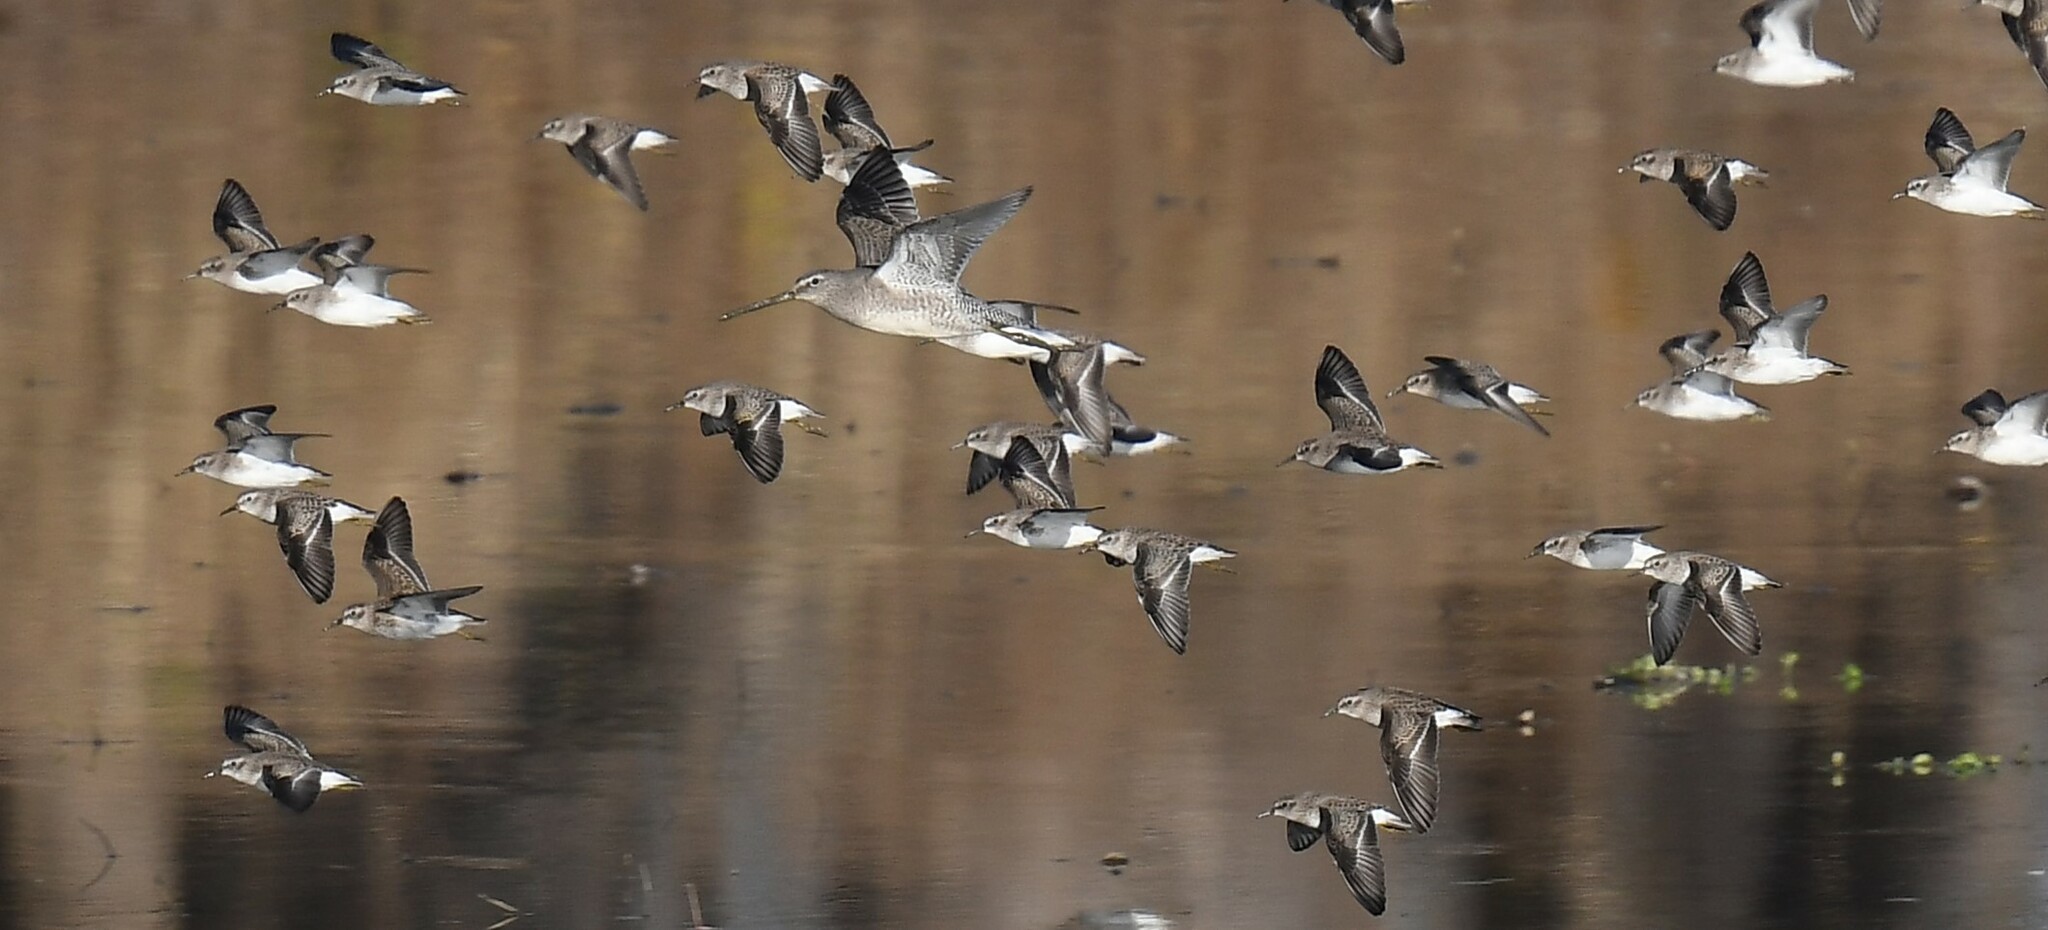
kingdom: Animalia
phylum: Chordata
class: Aves
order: Charadriiformes
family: Scolopacidae
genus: Limnodromus
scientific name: Limnodromus scolopaceus
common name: Long-billed dowitcher
